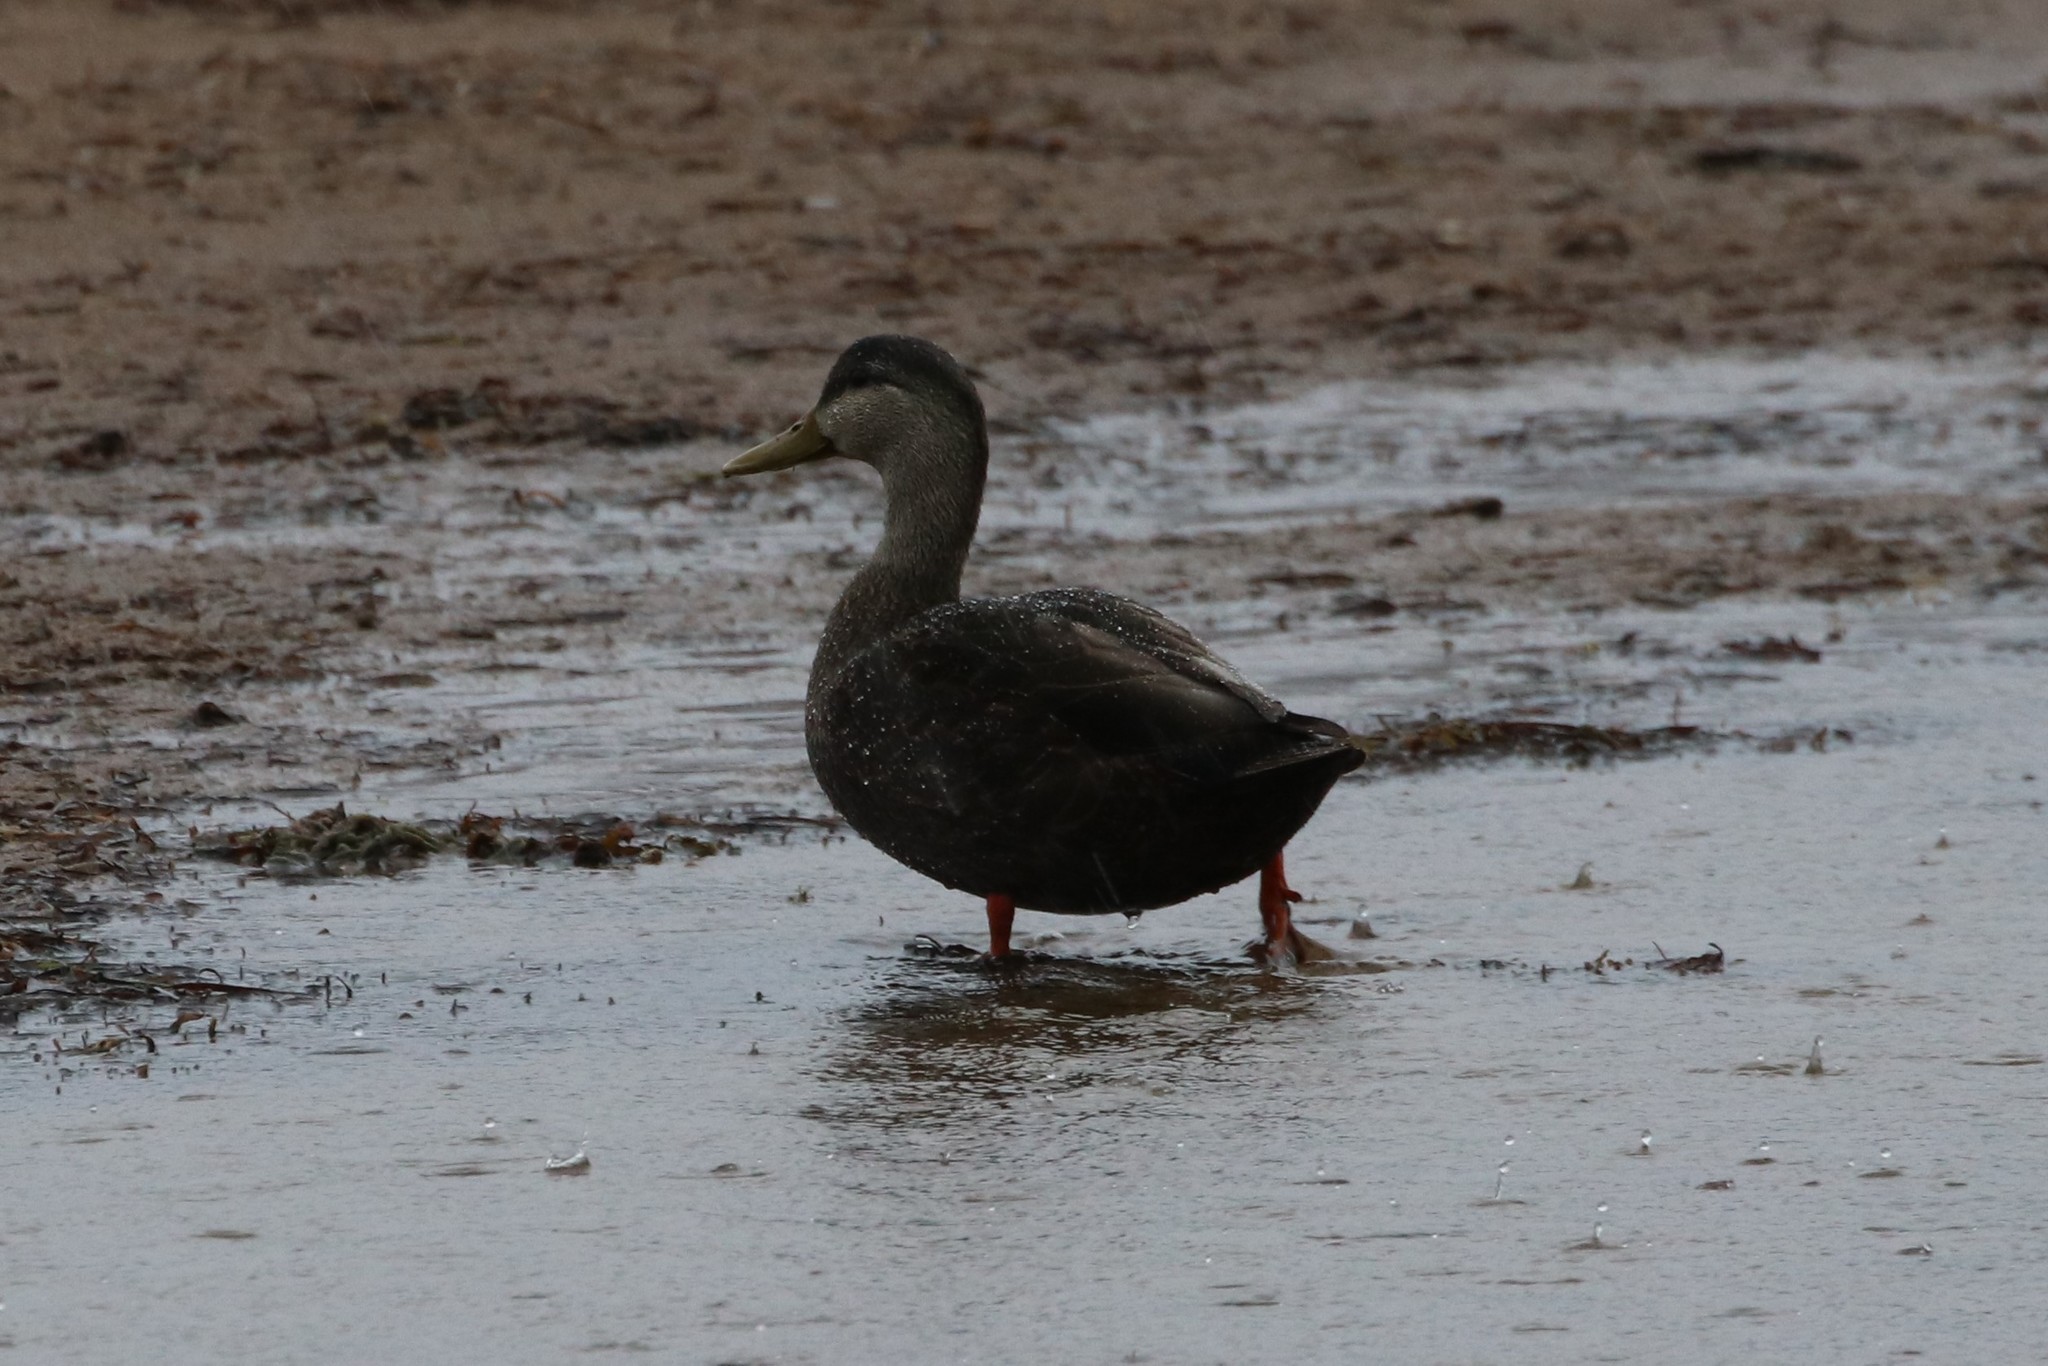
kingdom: Animalia
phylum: Chordata
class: Aves
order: Anseriformes
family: Anatidae
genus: Anas
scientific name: Anas rubripes
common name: American black duck
